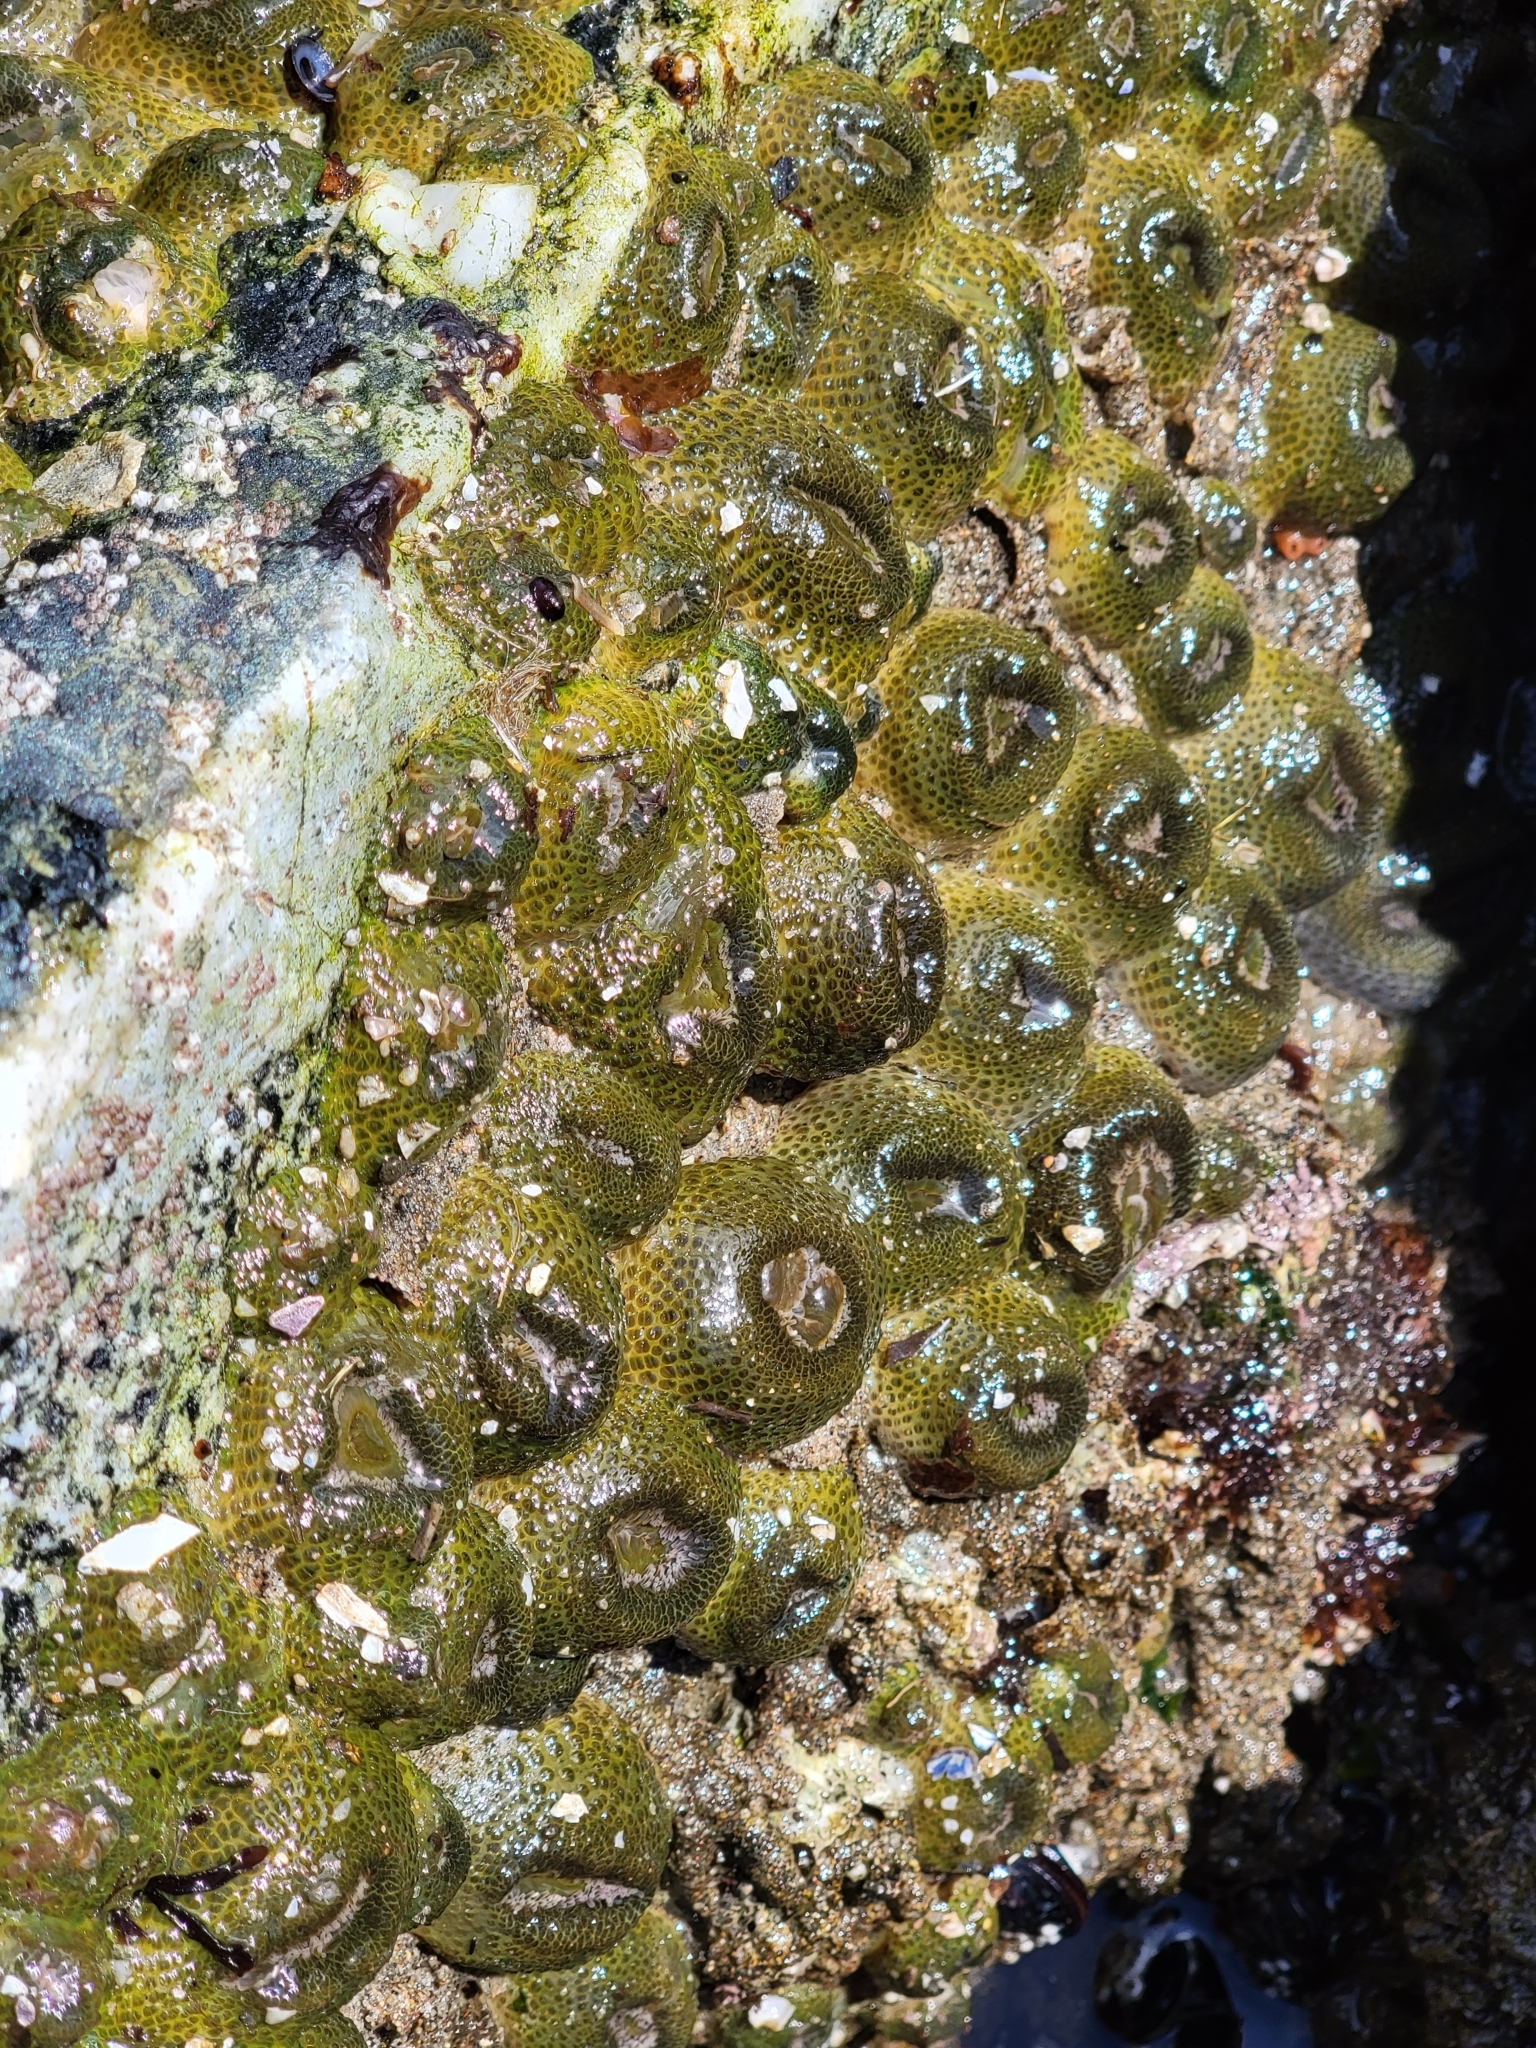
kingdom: Animalia
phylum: Cnidaria
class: Anthozoa
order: Actiniaria
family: Actiniidae
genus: Anthopleura
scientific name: Anthopleura elegantissima
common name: Clonal anemone
